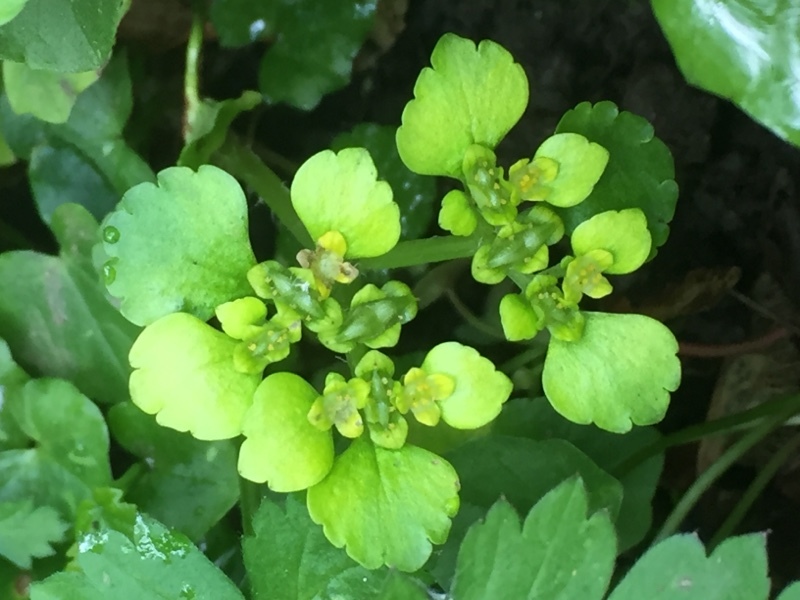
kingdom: Plantae
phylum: Tracheophyta
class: Magnoliopsida
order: Saxifragales
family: Saxifragaceae
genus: Chrysosplenium
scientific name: Chrysosplenium alternifolium
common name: Alternate-leaved golden-saxifrage
